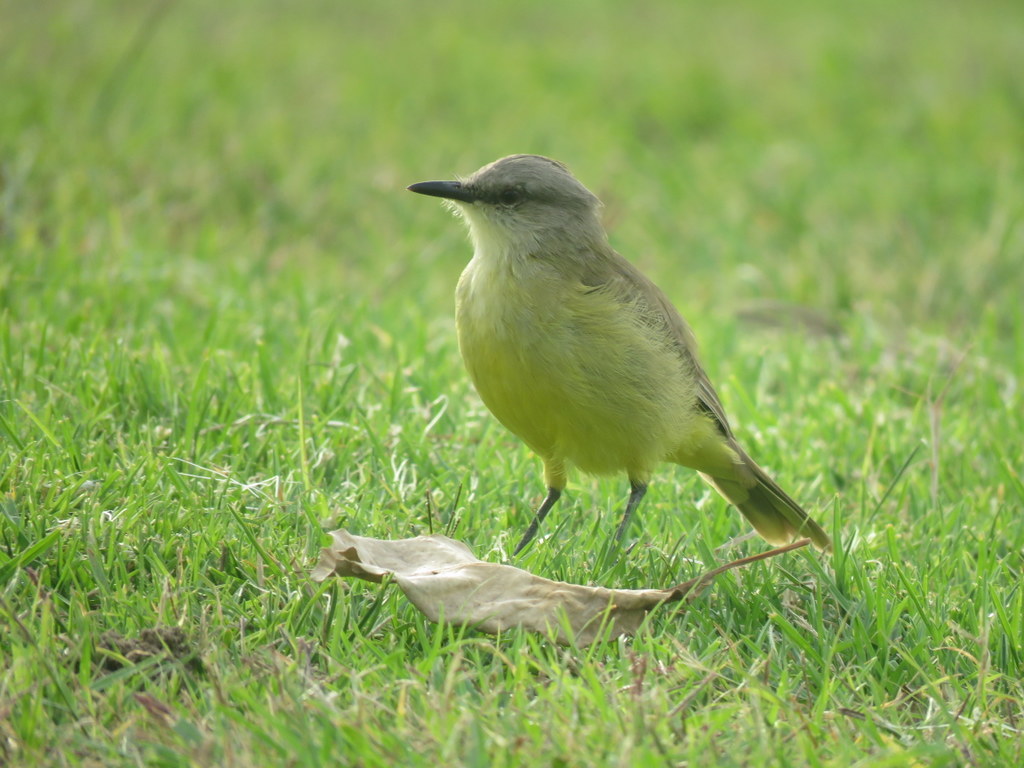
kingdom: Animalia
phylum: Chordata
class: Aves
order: Passeriformes
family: Tyrannidae
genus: Machetornis
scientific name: Machetornis rixosa
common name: Cattle tyrant
